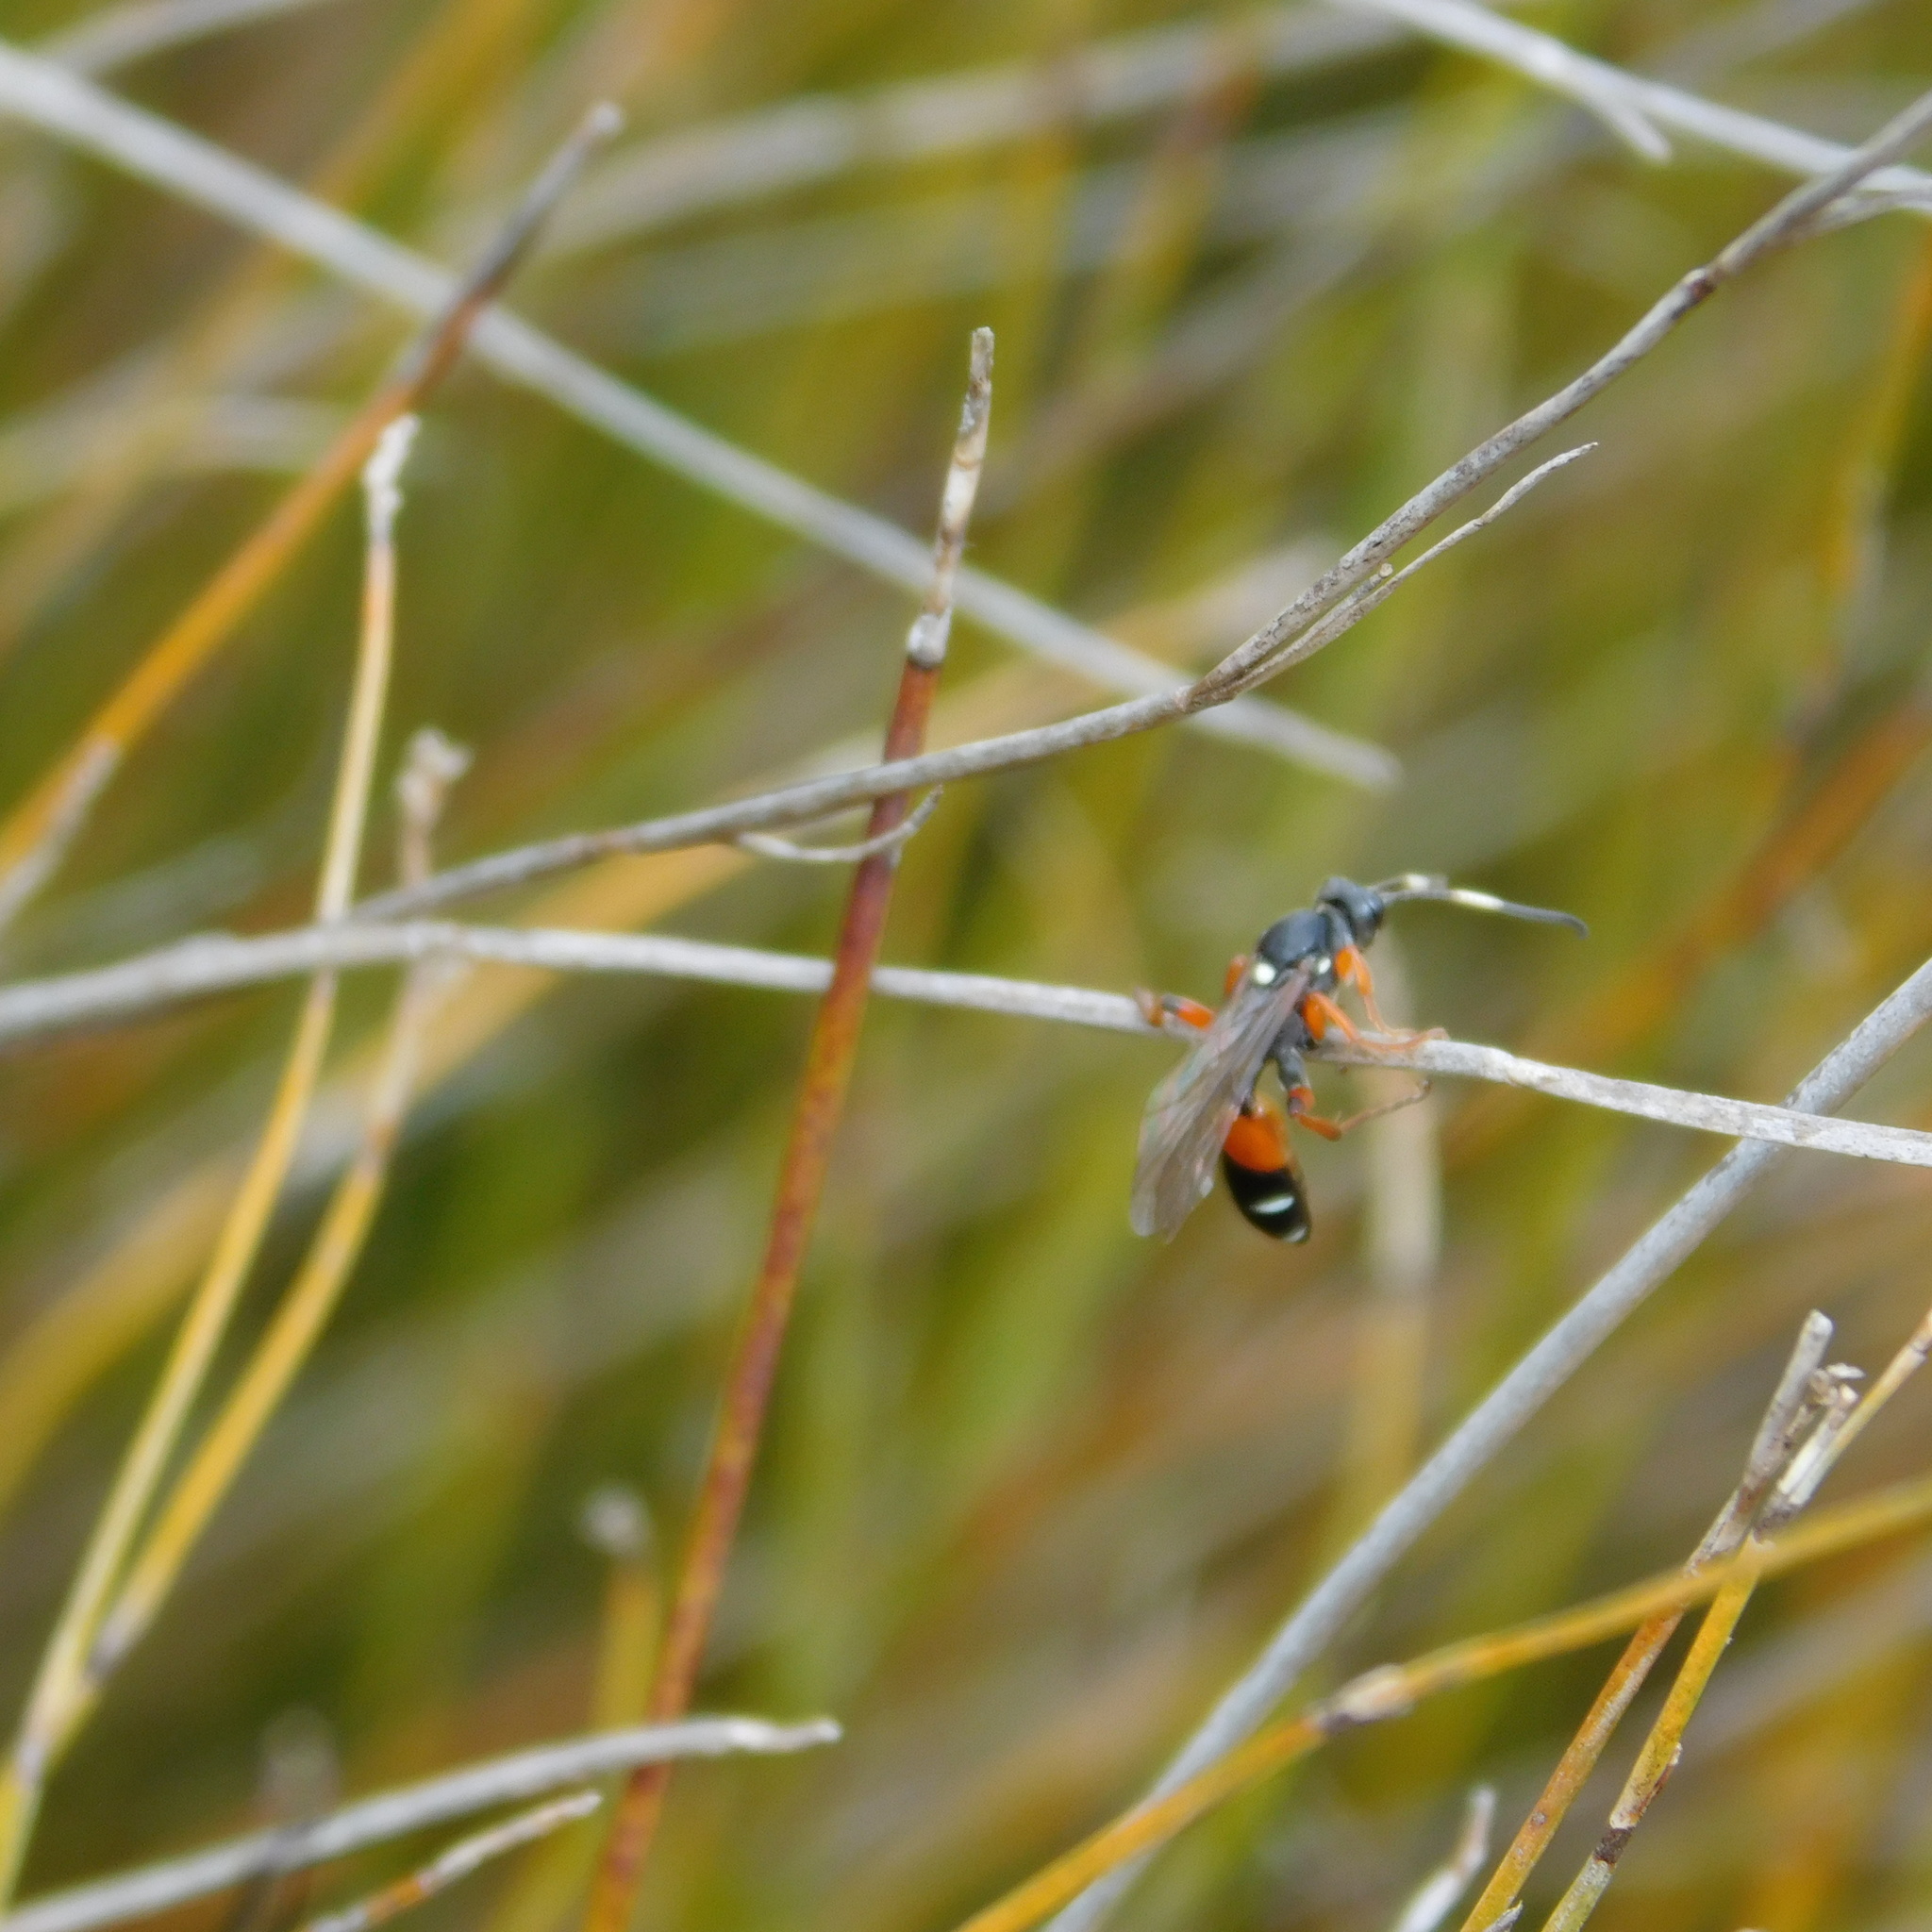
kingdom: Animalia
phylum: Arthropoda
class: Insecta
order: Hymenoptera
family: Ichneumonidae
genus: Ichneumon
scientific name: Ichneumon promissorius
